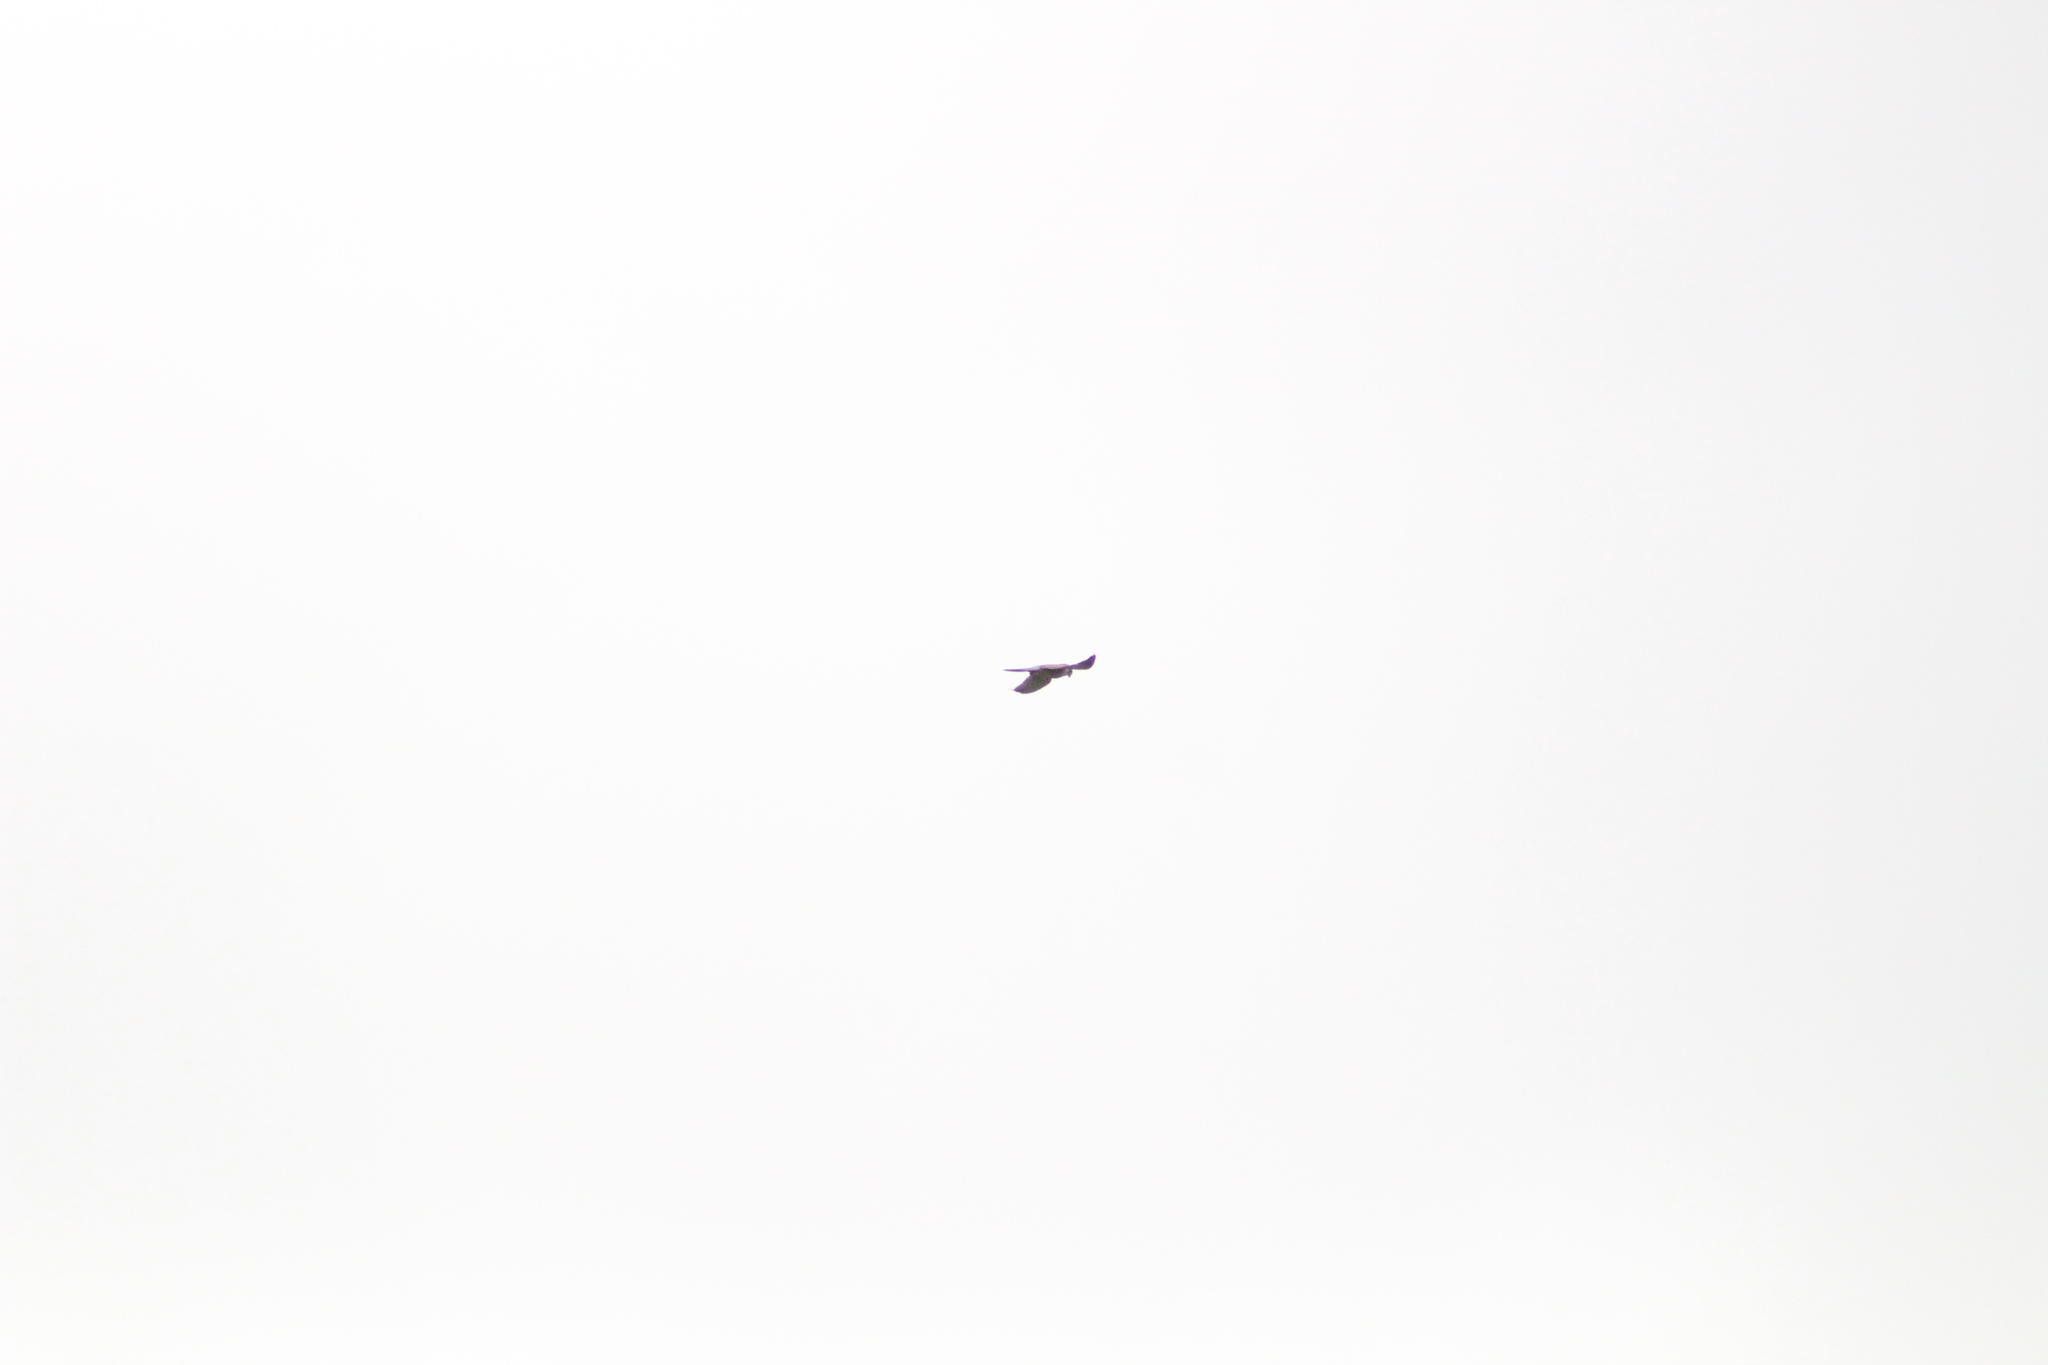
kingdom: Animalia
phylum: Chordata
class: Aves
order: Falconiformes
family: Falconidae
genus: Falco
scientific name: Falco tinnunculus
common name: Common kestrel
